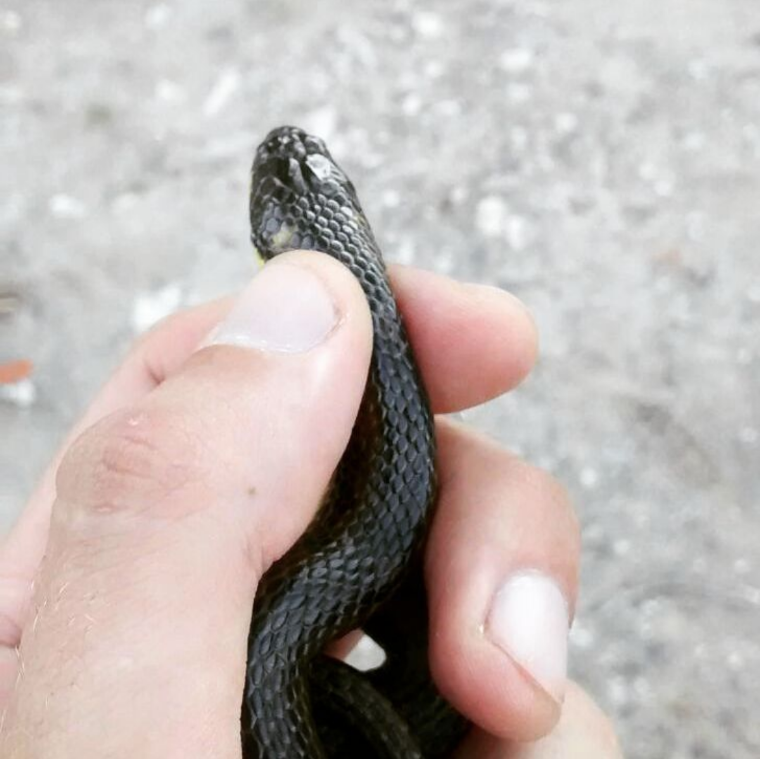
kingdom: Animalia
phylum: Chordata
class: Squamata
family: Colubridae
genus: Helicops
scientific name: Helicops infrataeniatus
